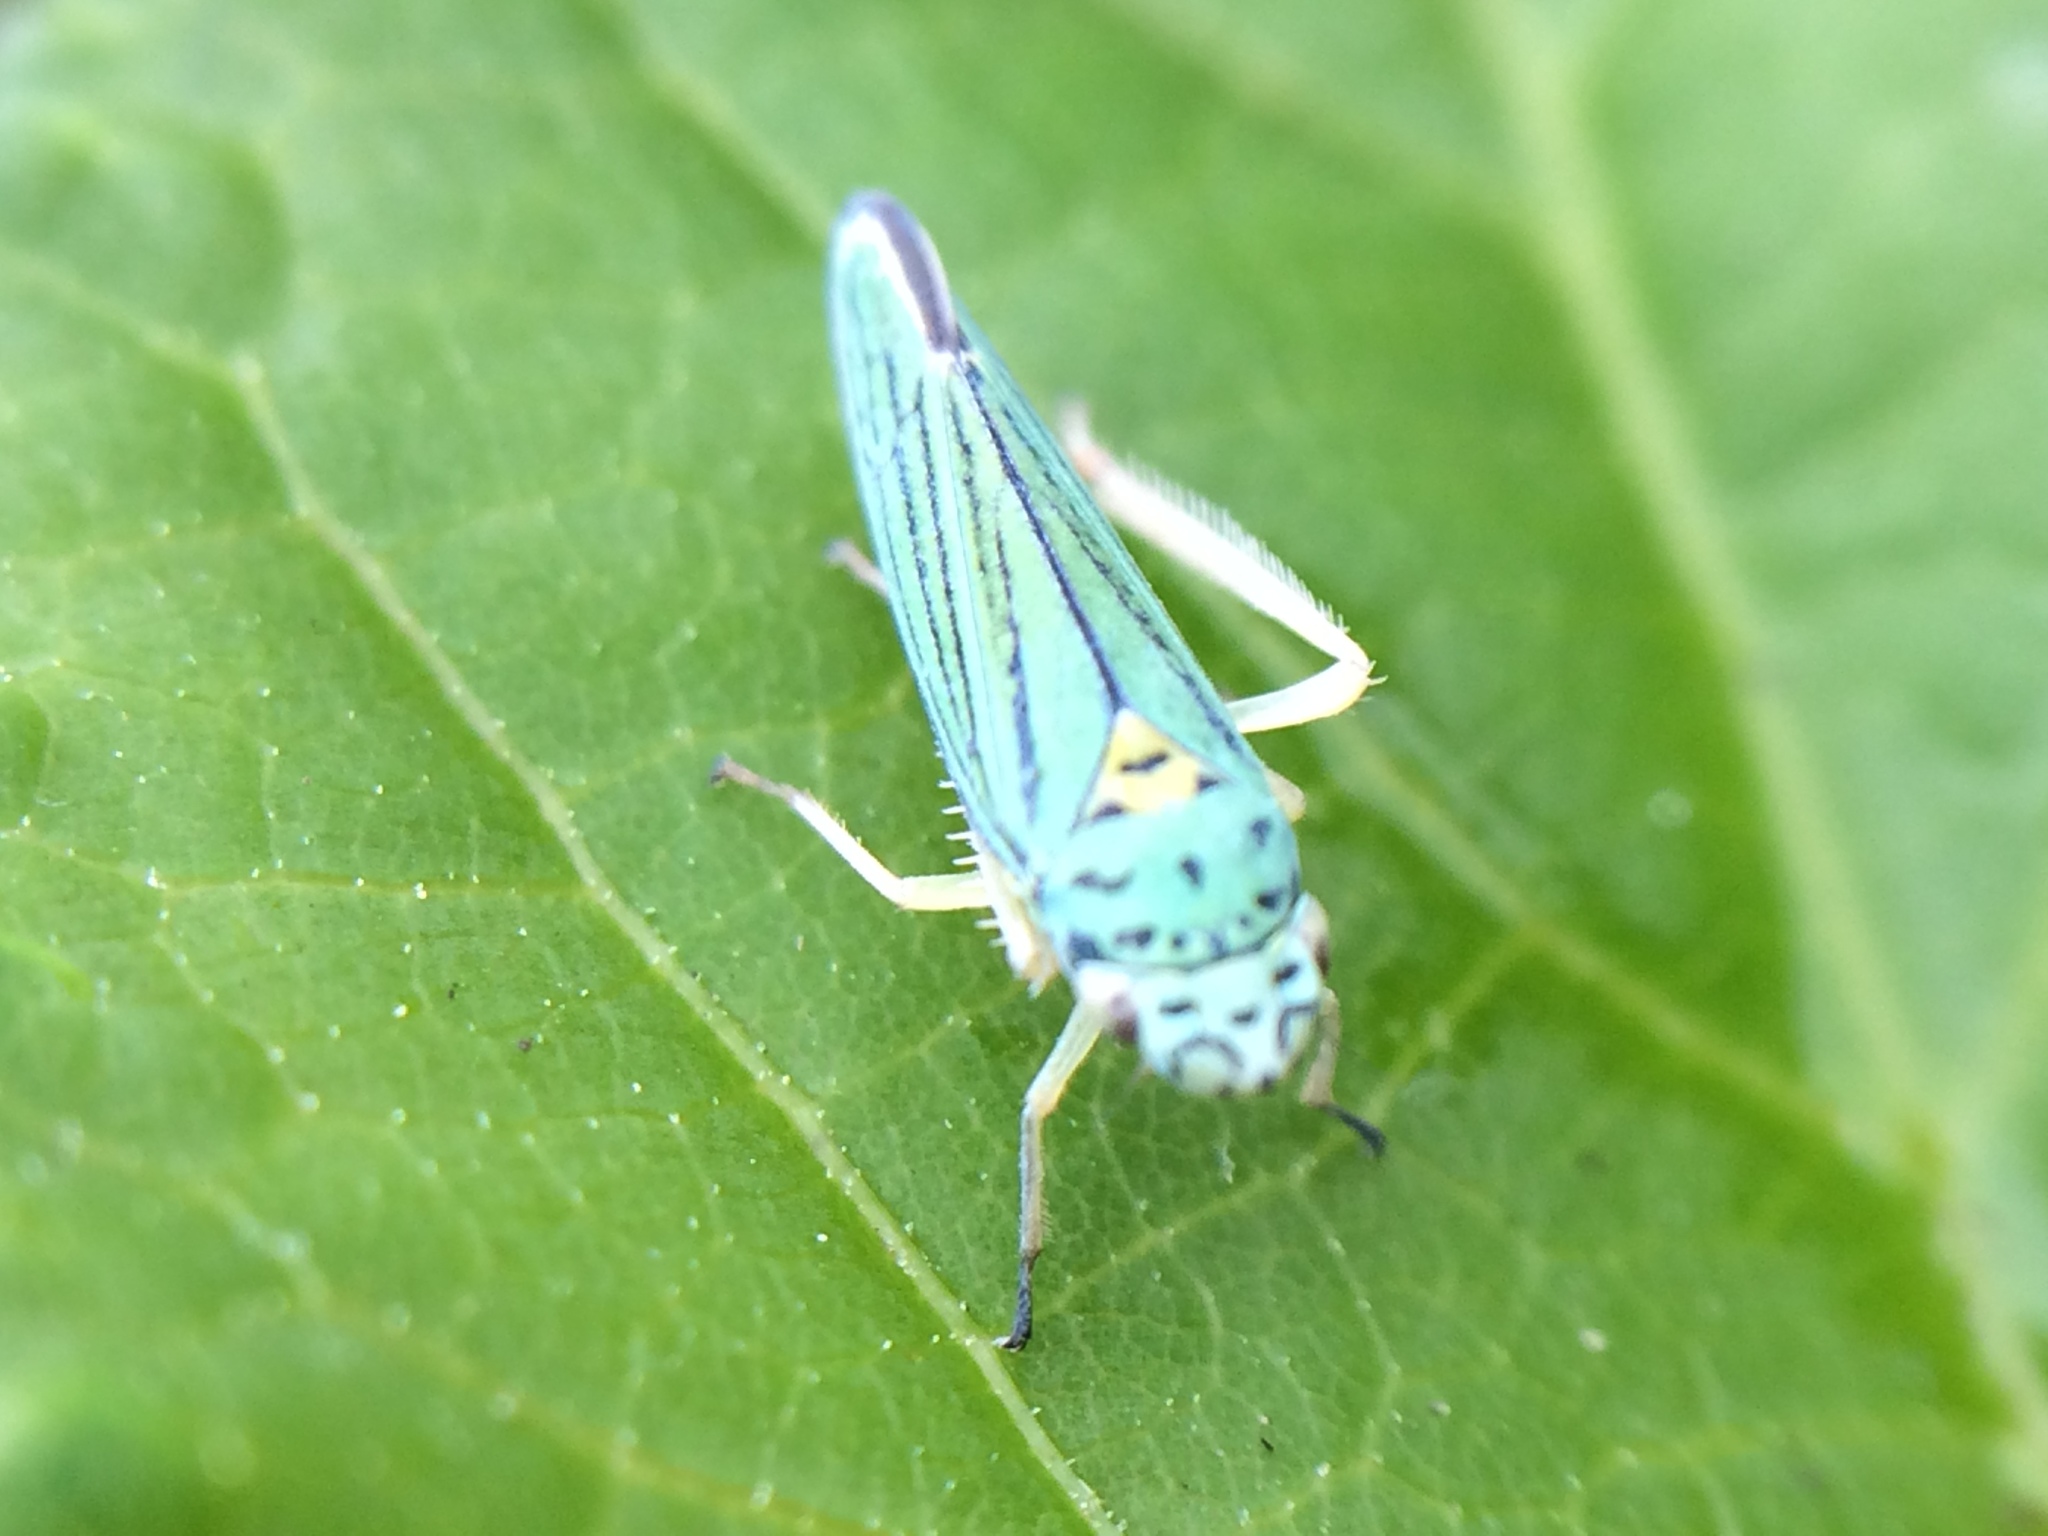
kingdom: Animalia
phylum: Arthropoda
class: Insecta
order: Hemiptera
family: Cicadellidae
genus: Graphocephala
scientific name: Graphocephala atropunctata
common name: Blue-green sharpshooter
